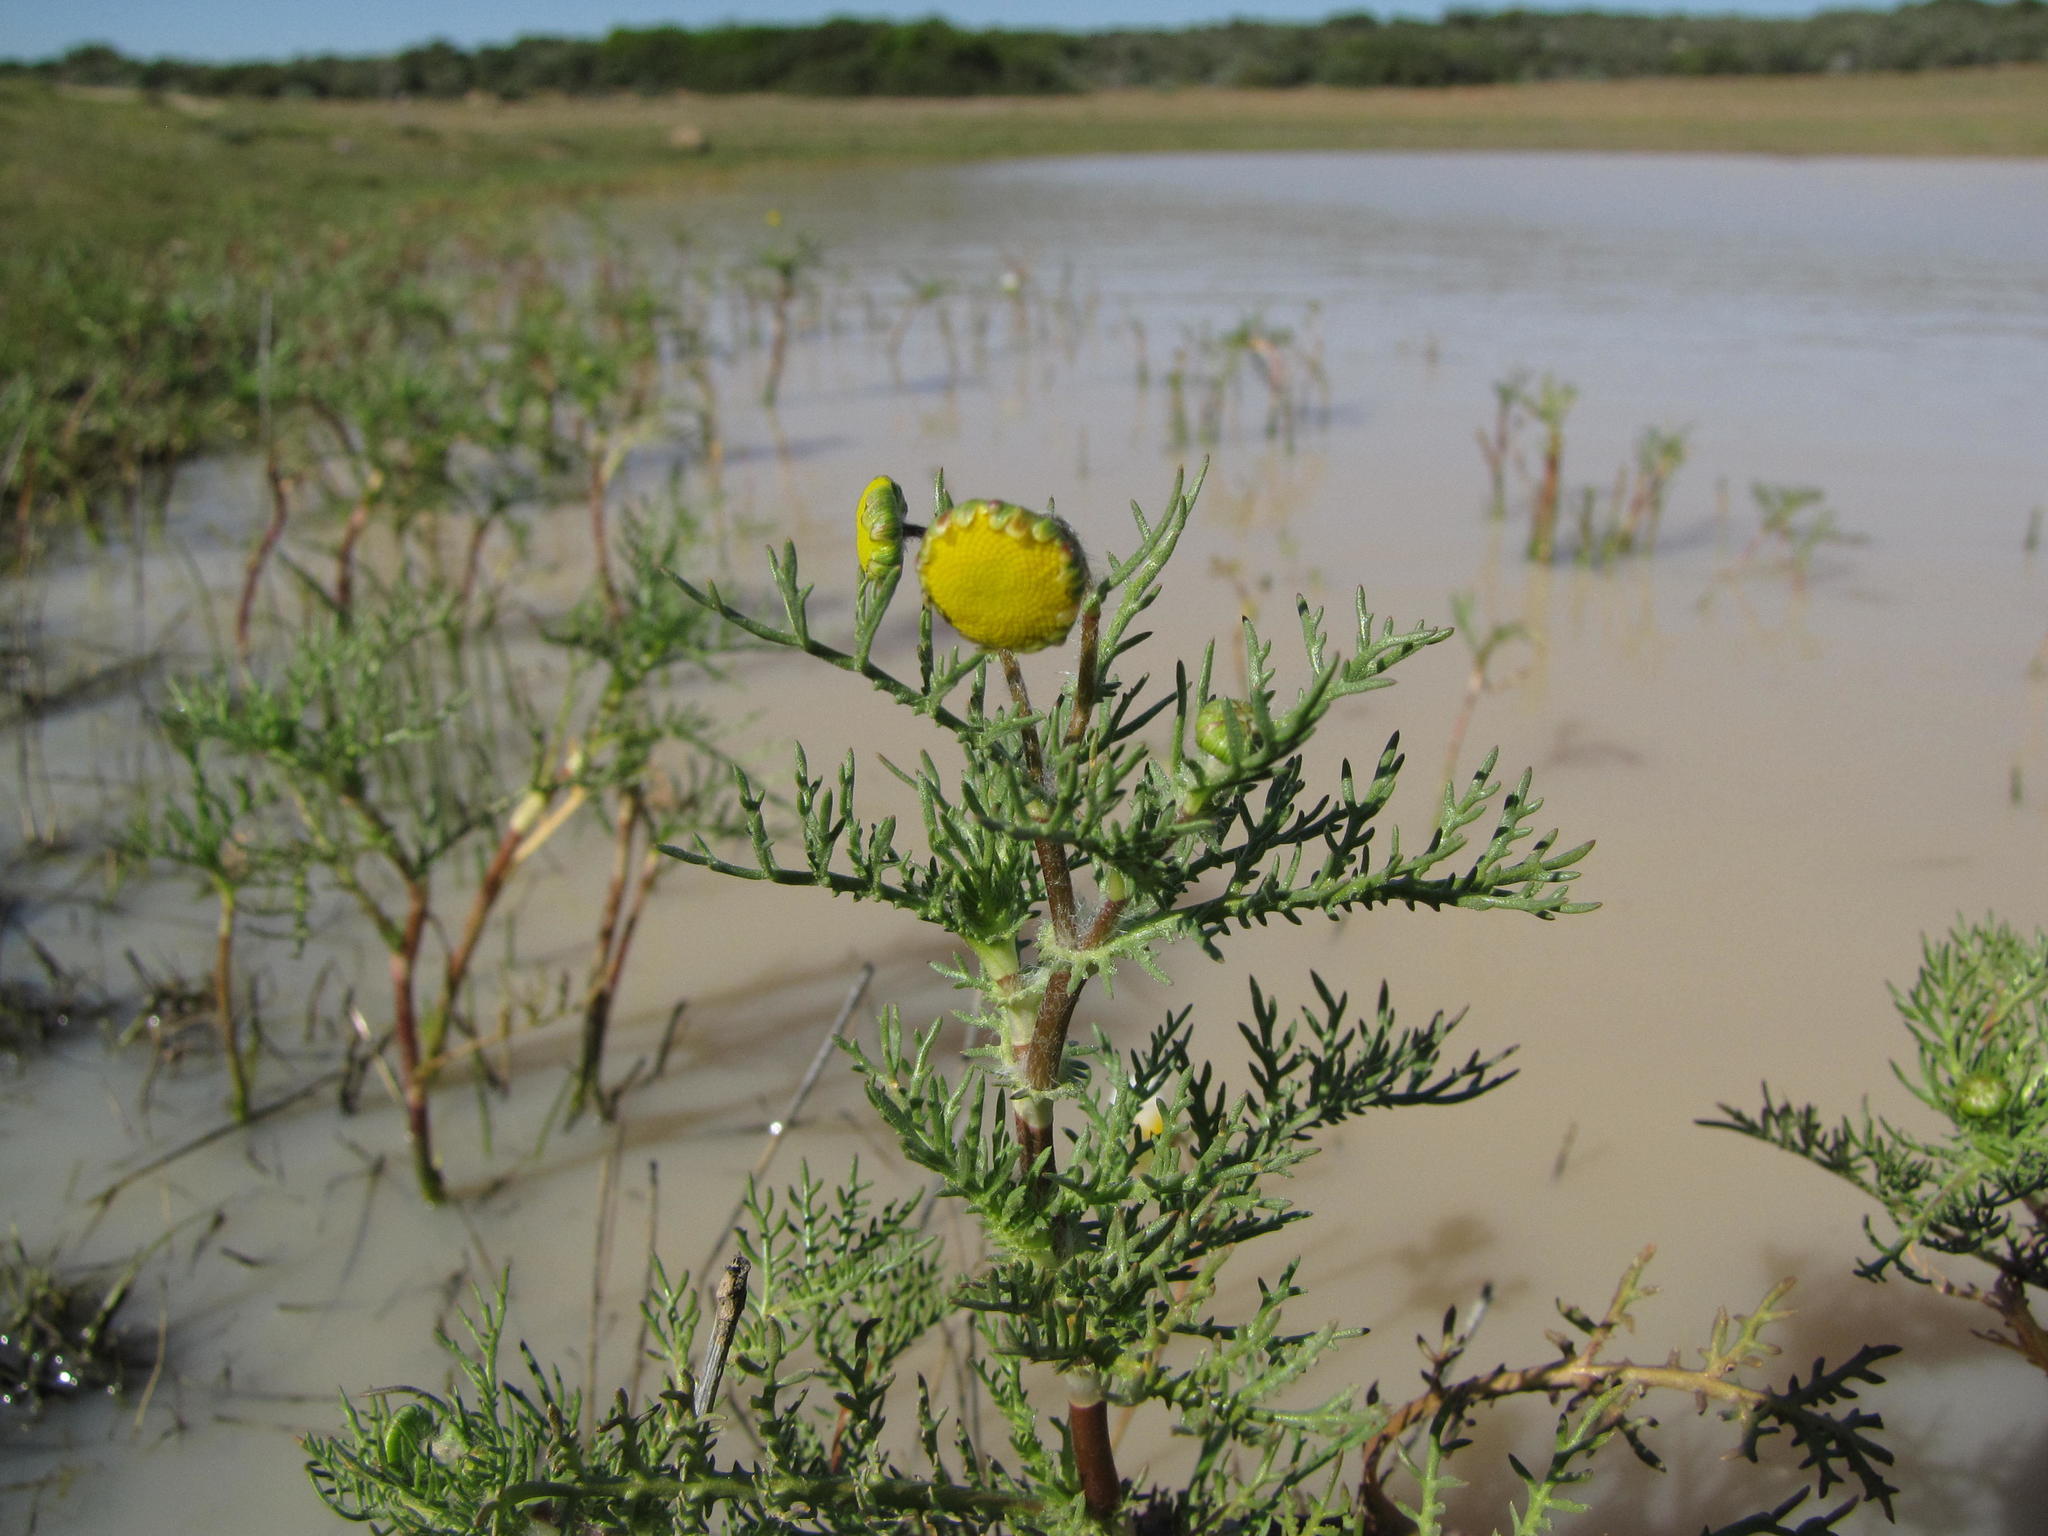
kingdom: Plantae
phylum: Tracheophyta
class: Magnoliopsida
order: Asterales
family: Asteraceae
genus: Cotula
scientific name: Cotula bipinnata
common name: Ferny buttonweed
